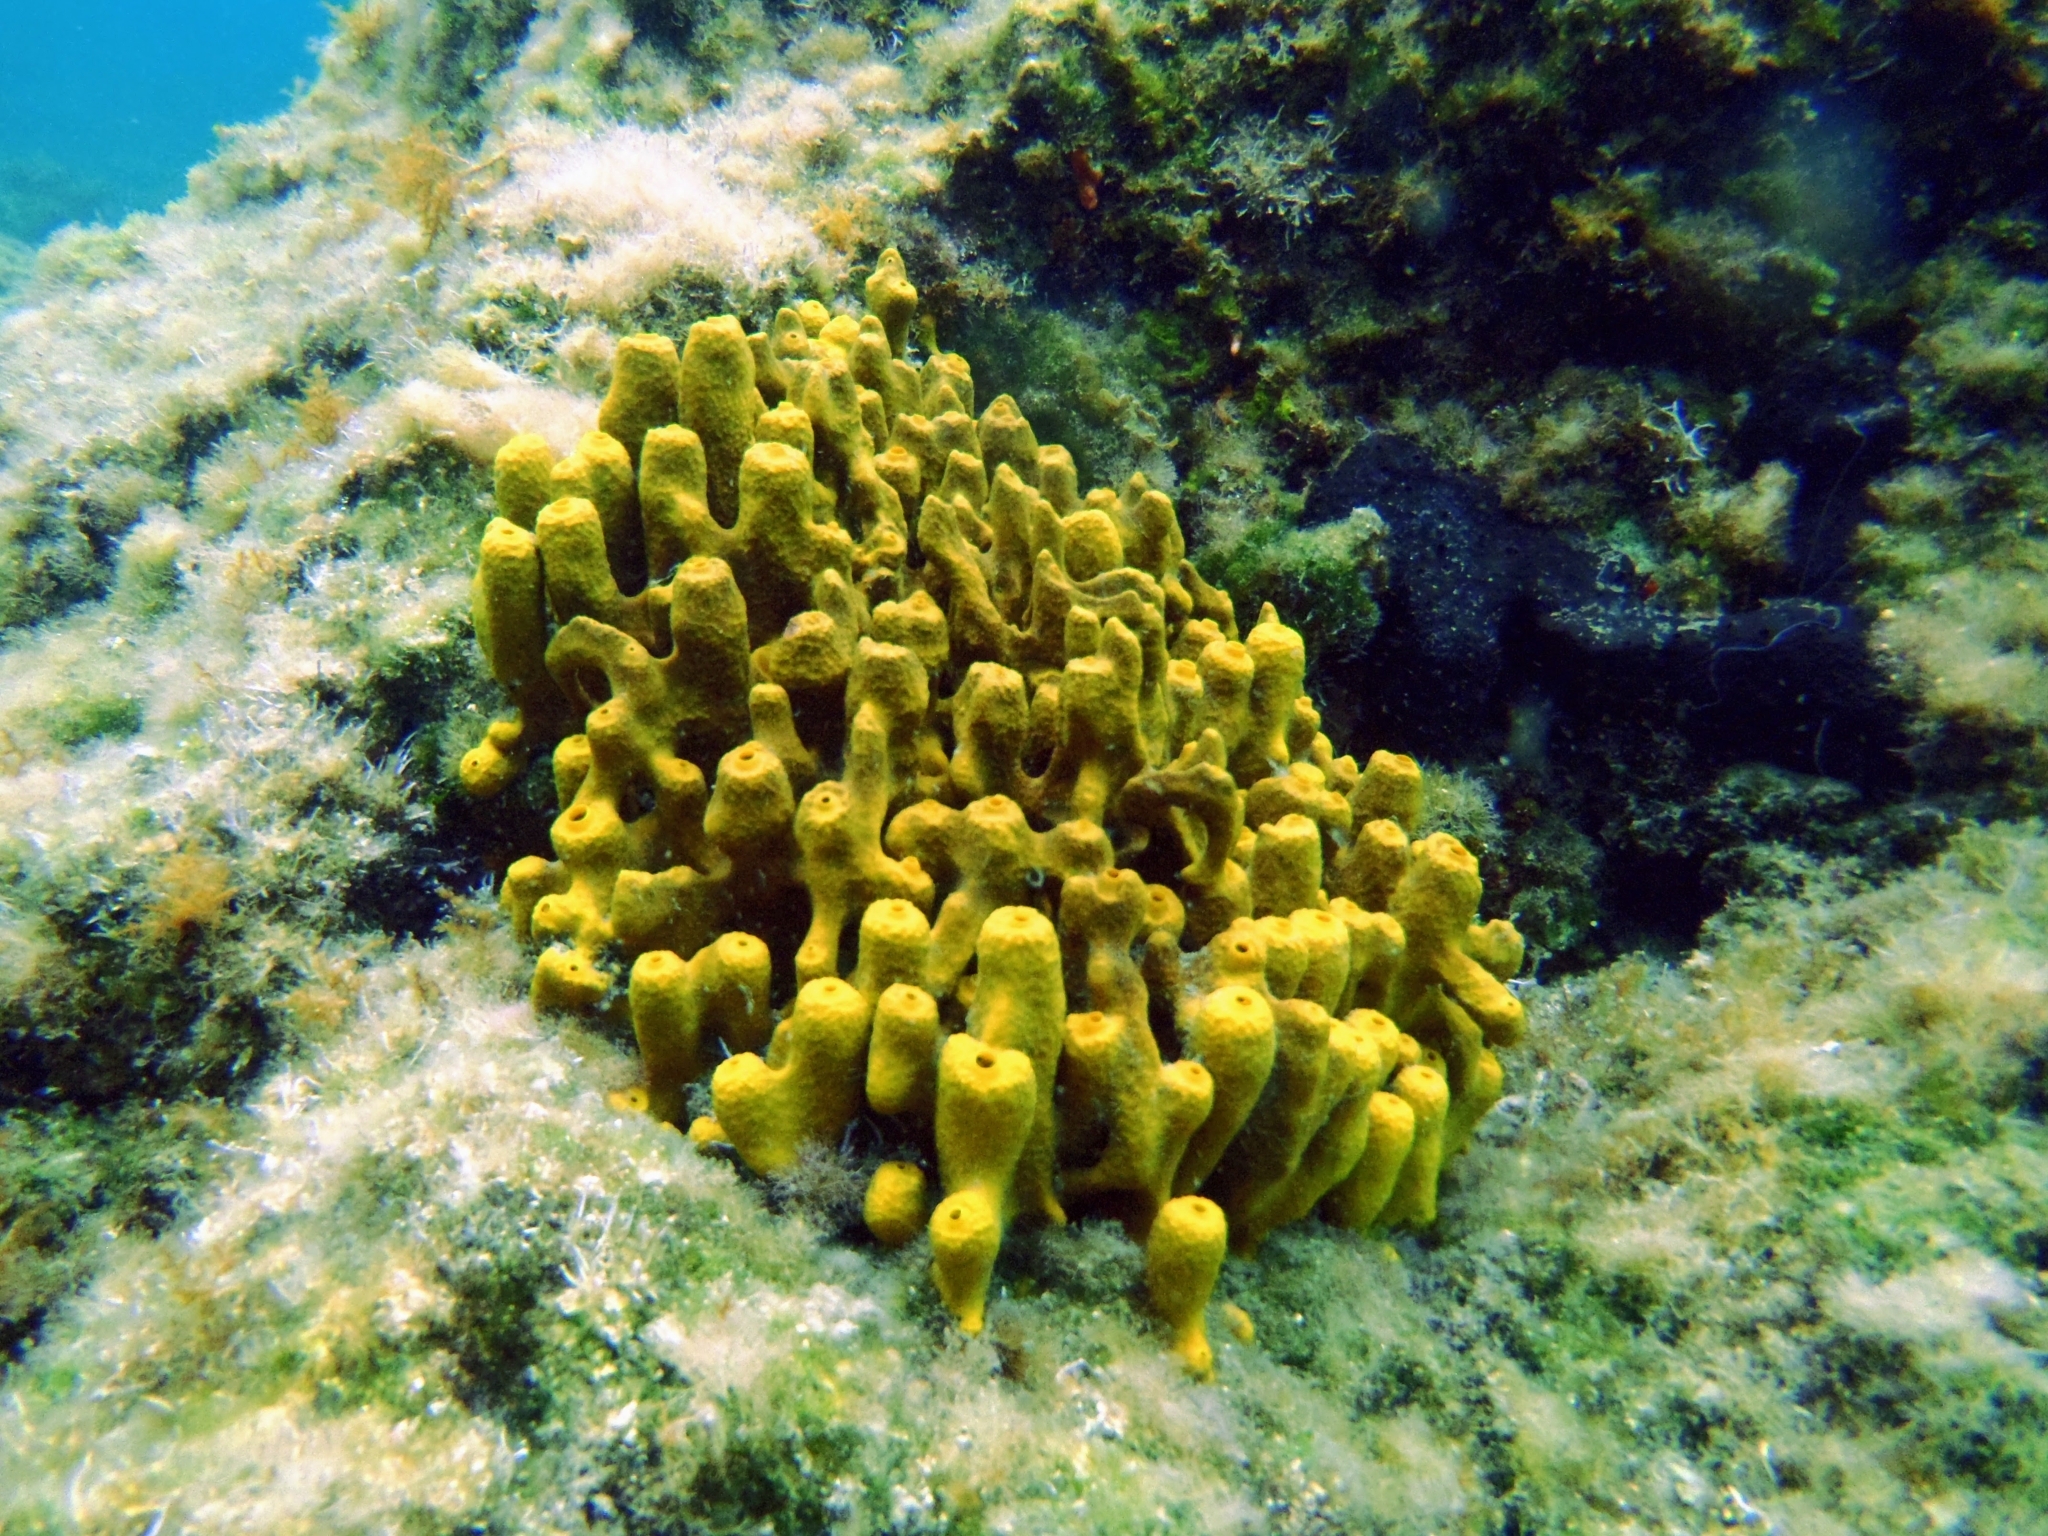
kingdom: Animalia
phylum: Porifera
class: Demospongiae
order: Verongiida
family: Aplysinidae
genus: Aplysina
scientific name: Aplysina aerophoba
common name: Aureate sponge
